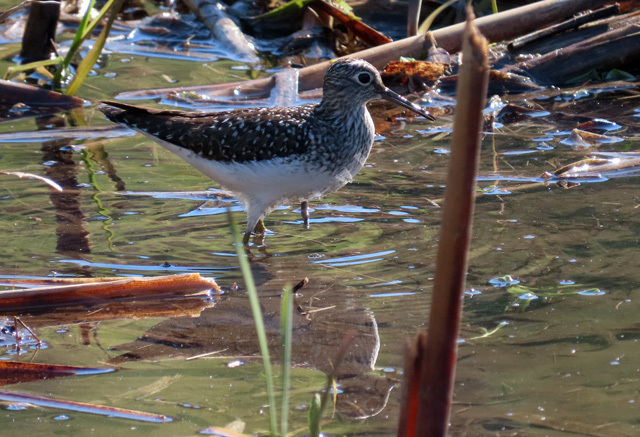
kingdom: Animalia
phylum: Chordata
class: Aves
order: Charadriiformes
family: Scolopacidae
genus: Tringa
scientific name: Tringa solitaria
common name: Solitary sandpiper
